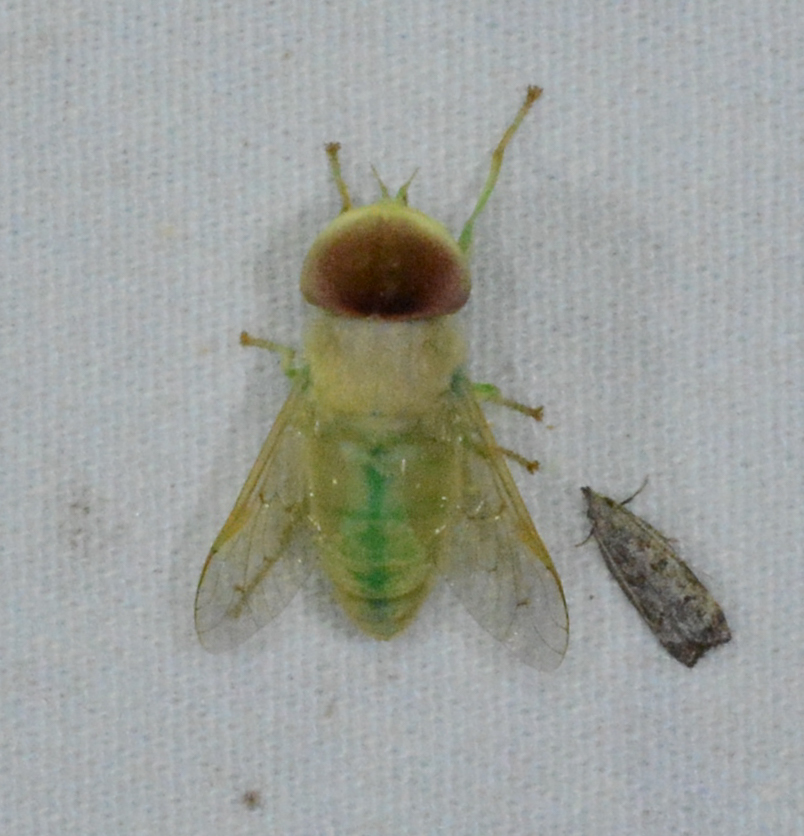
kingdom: Animalia
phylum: Arthropoda
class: Insecta
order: Diptera
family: Tabanidae
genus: Chlorotabanus
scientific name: Chlorotabanus crepuscularis
